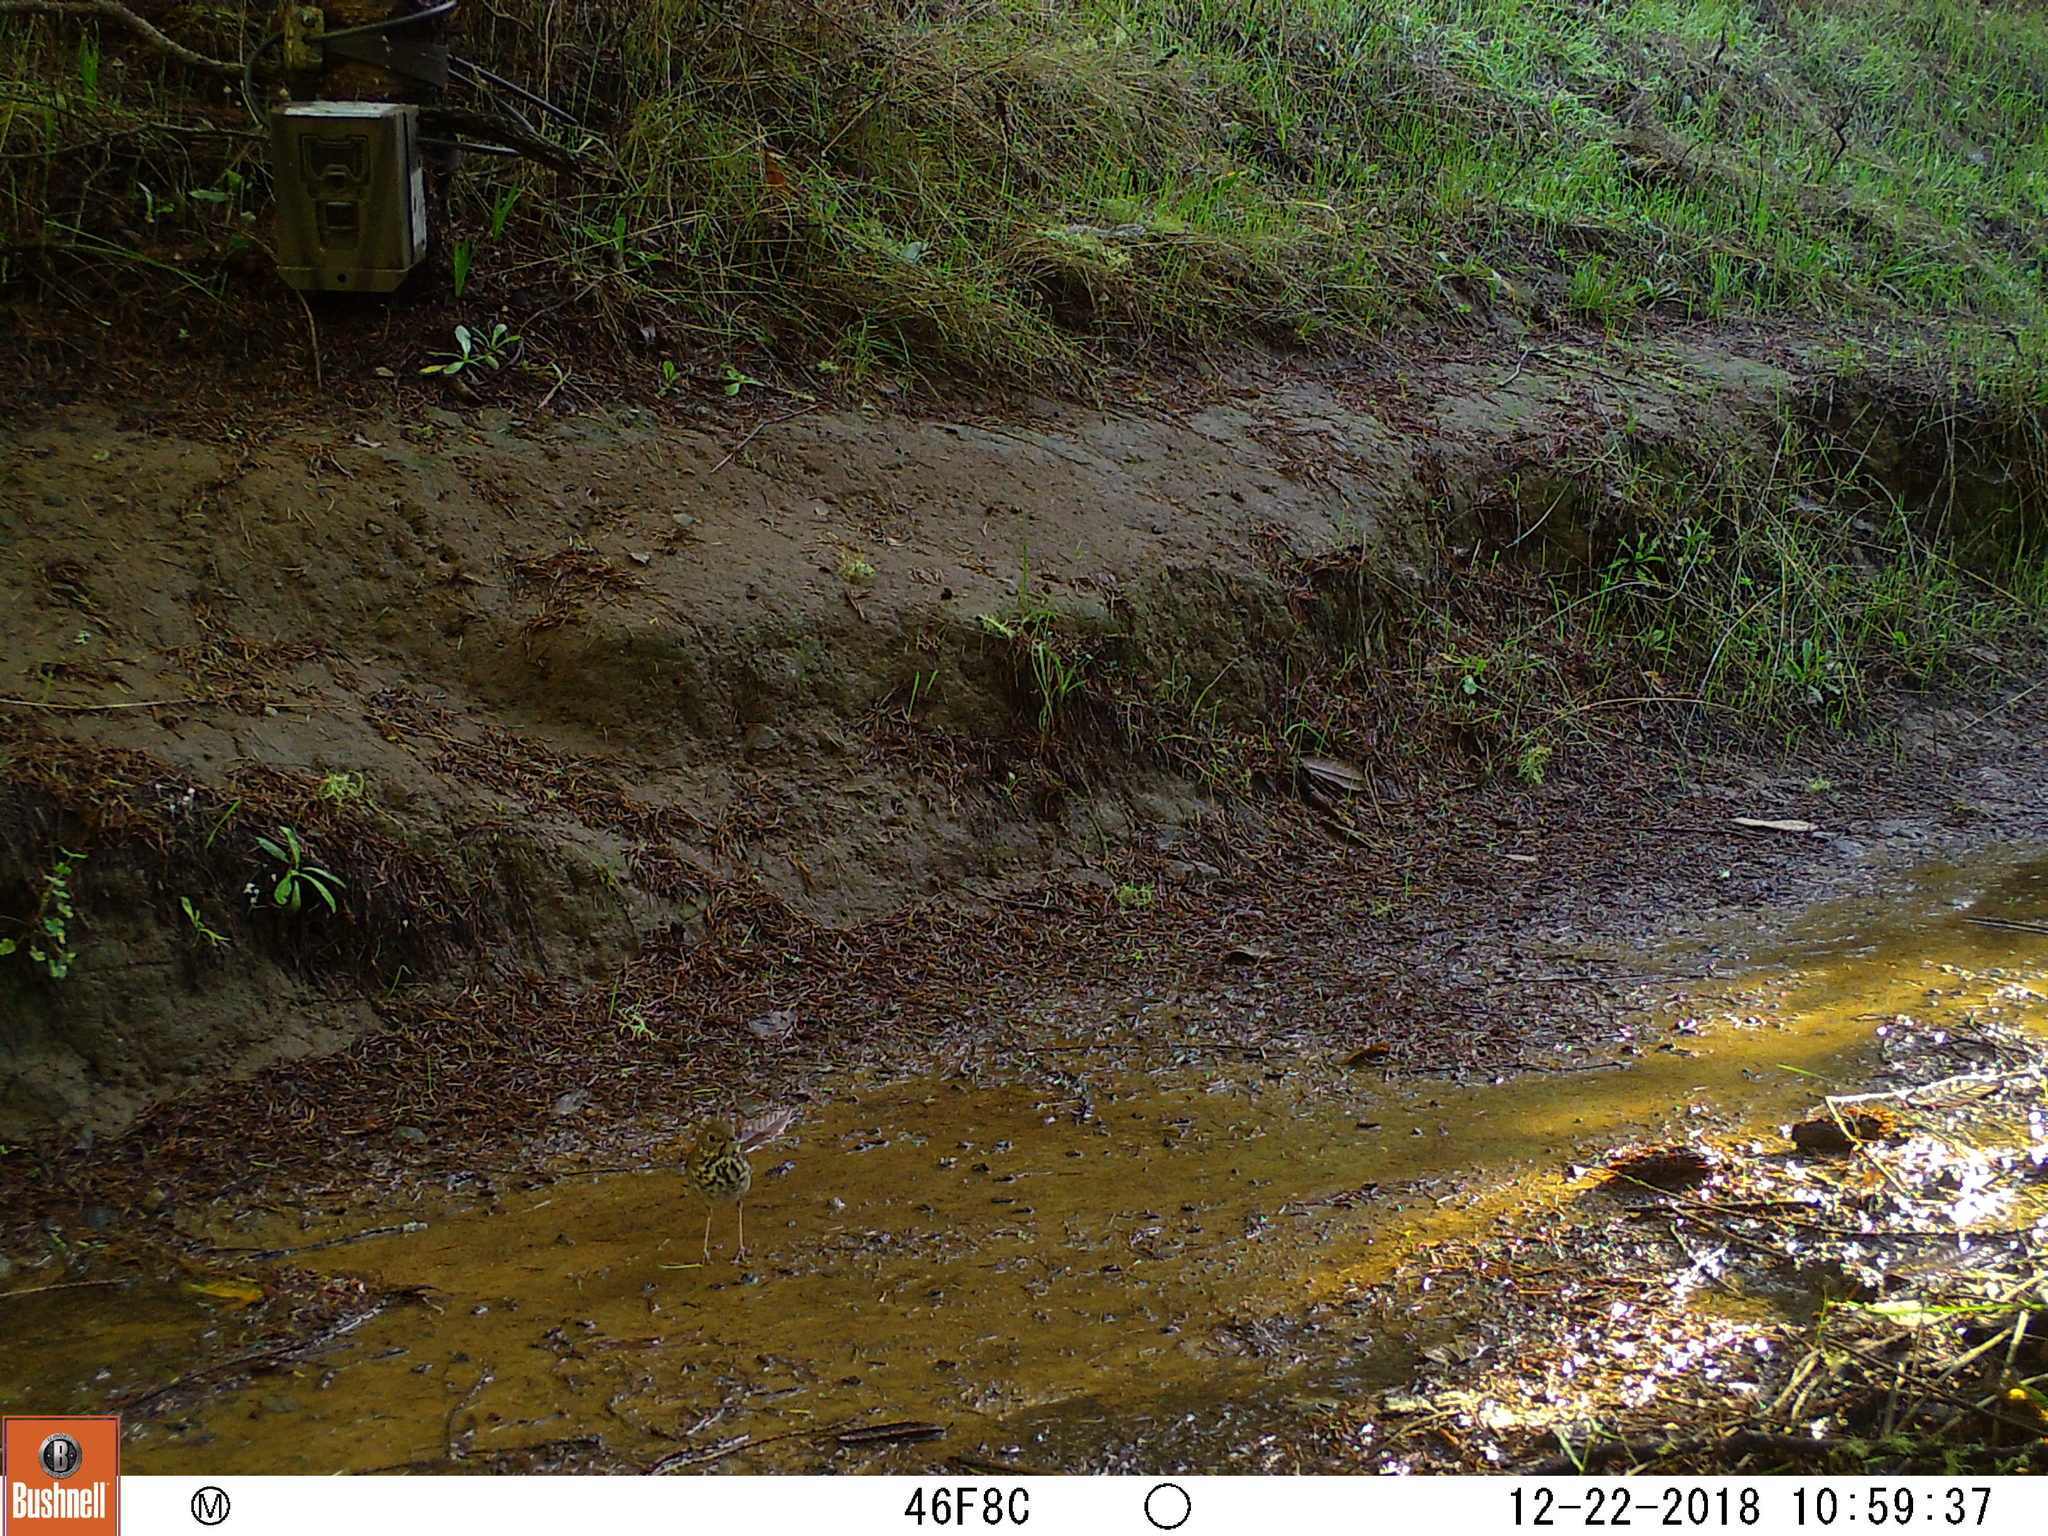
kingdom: Animalia
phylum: Chordata
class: Aves
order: Passeriformes
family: Turdidae
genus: Catharus
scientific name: Catharus guttatus
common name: Hermit thrush
